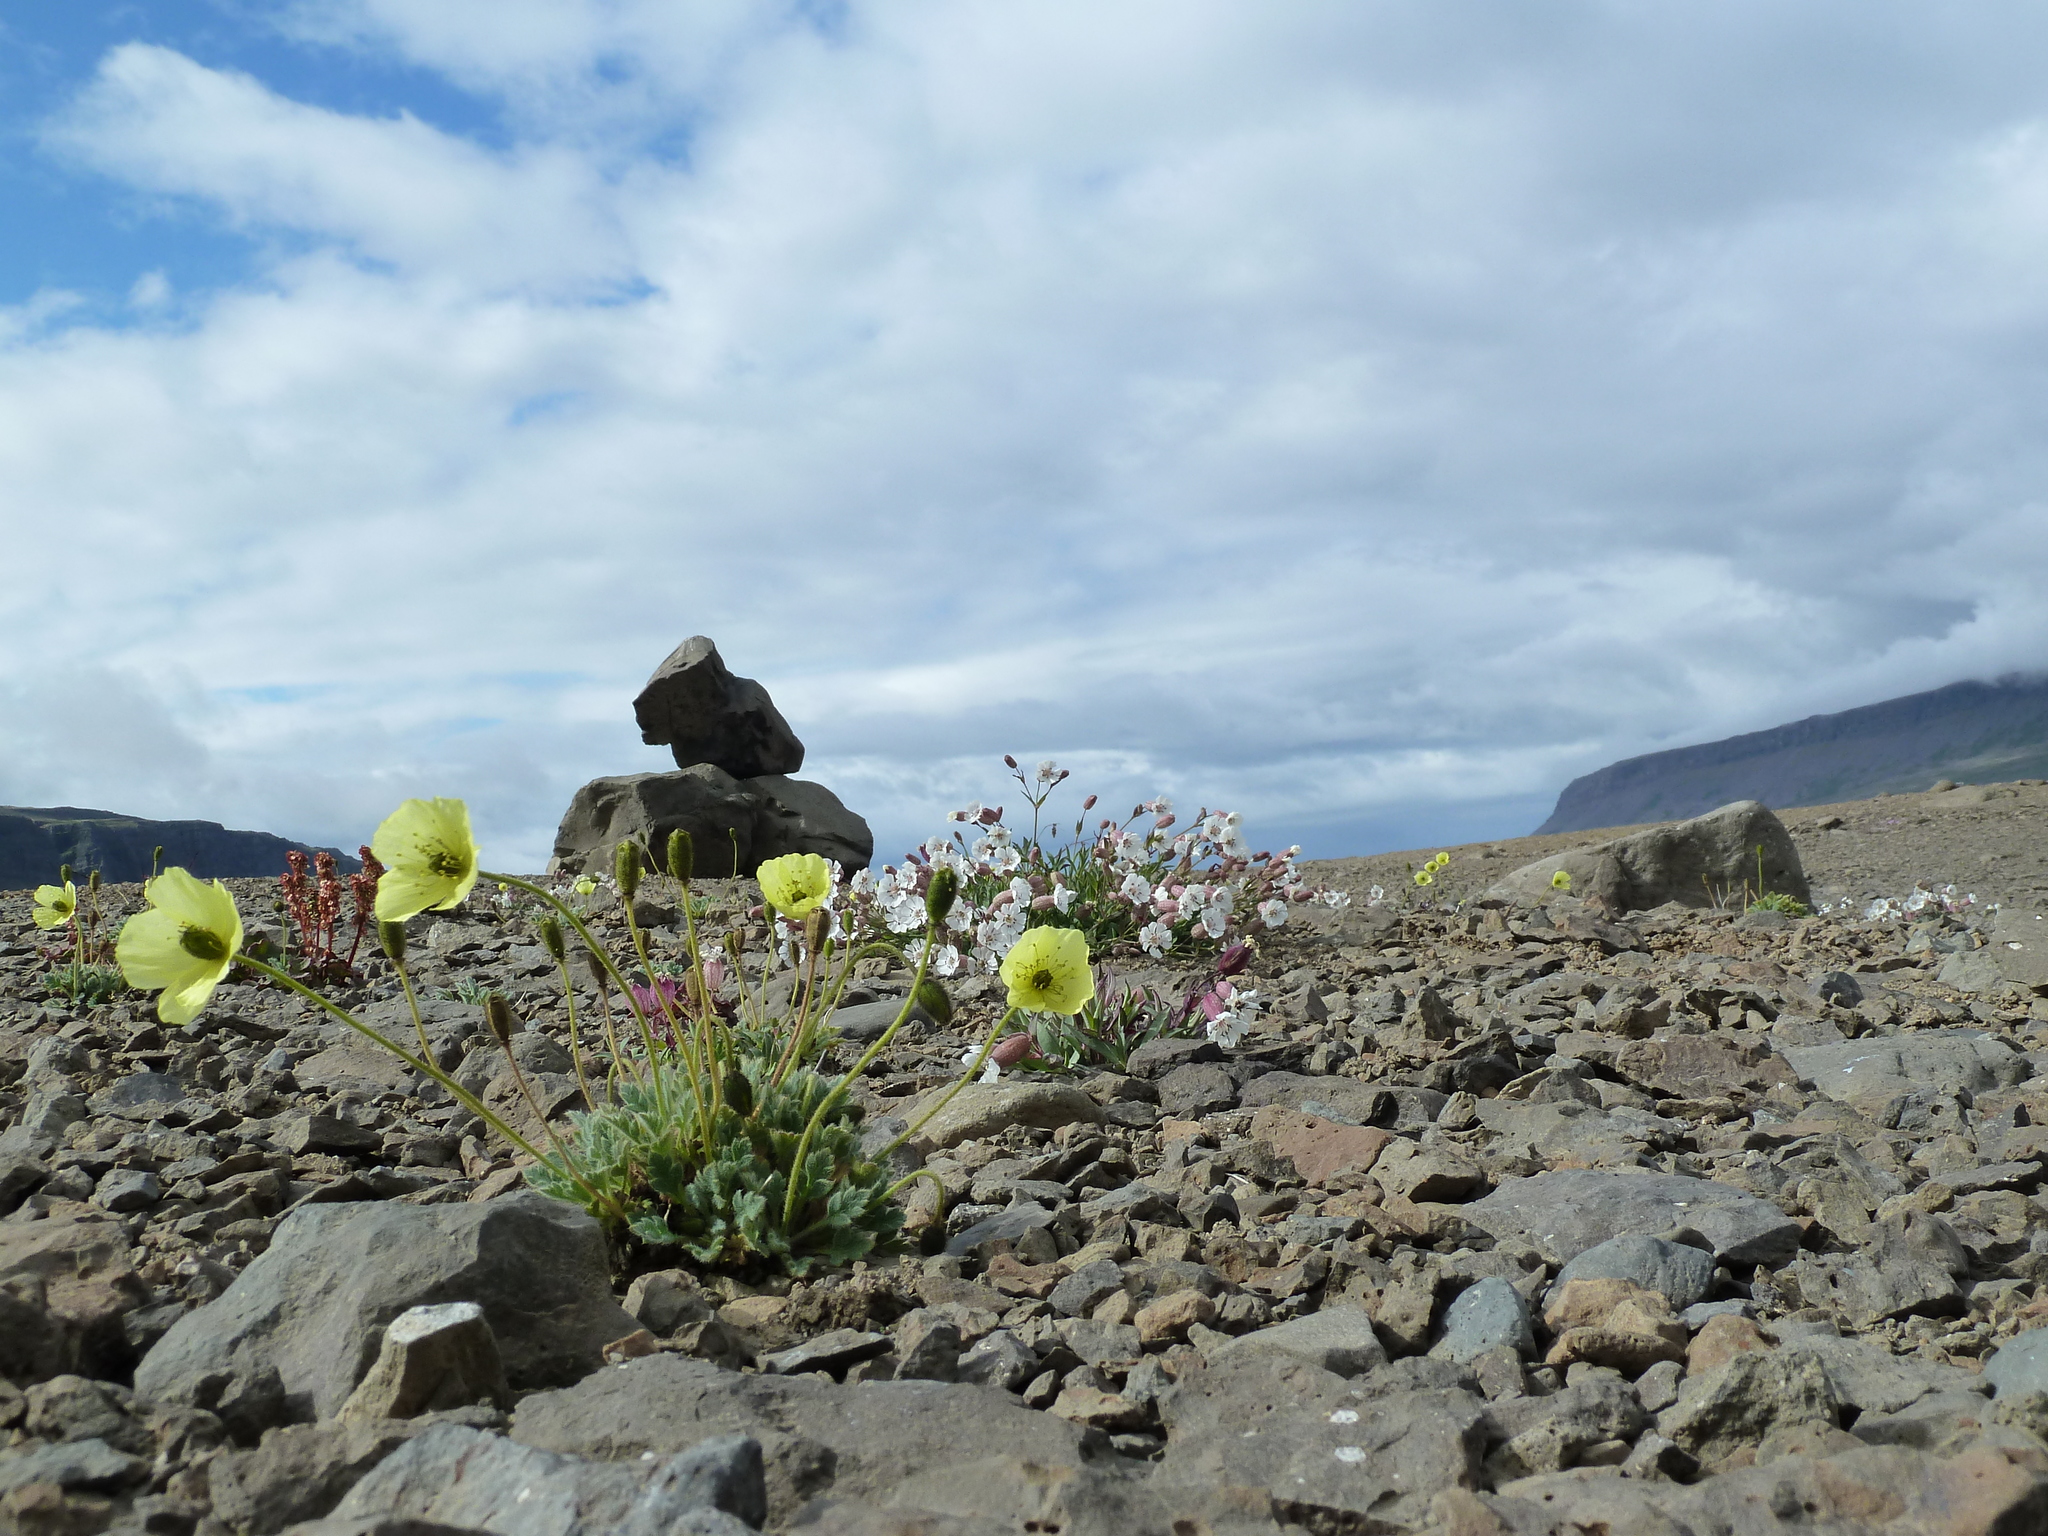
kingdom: Plantae
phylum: Tracheophyta
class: Magnoliopsida
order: Ranunculales
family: Papaveraceae
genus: Papaver
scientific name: Papaver radicatum
